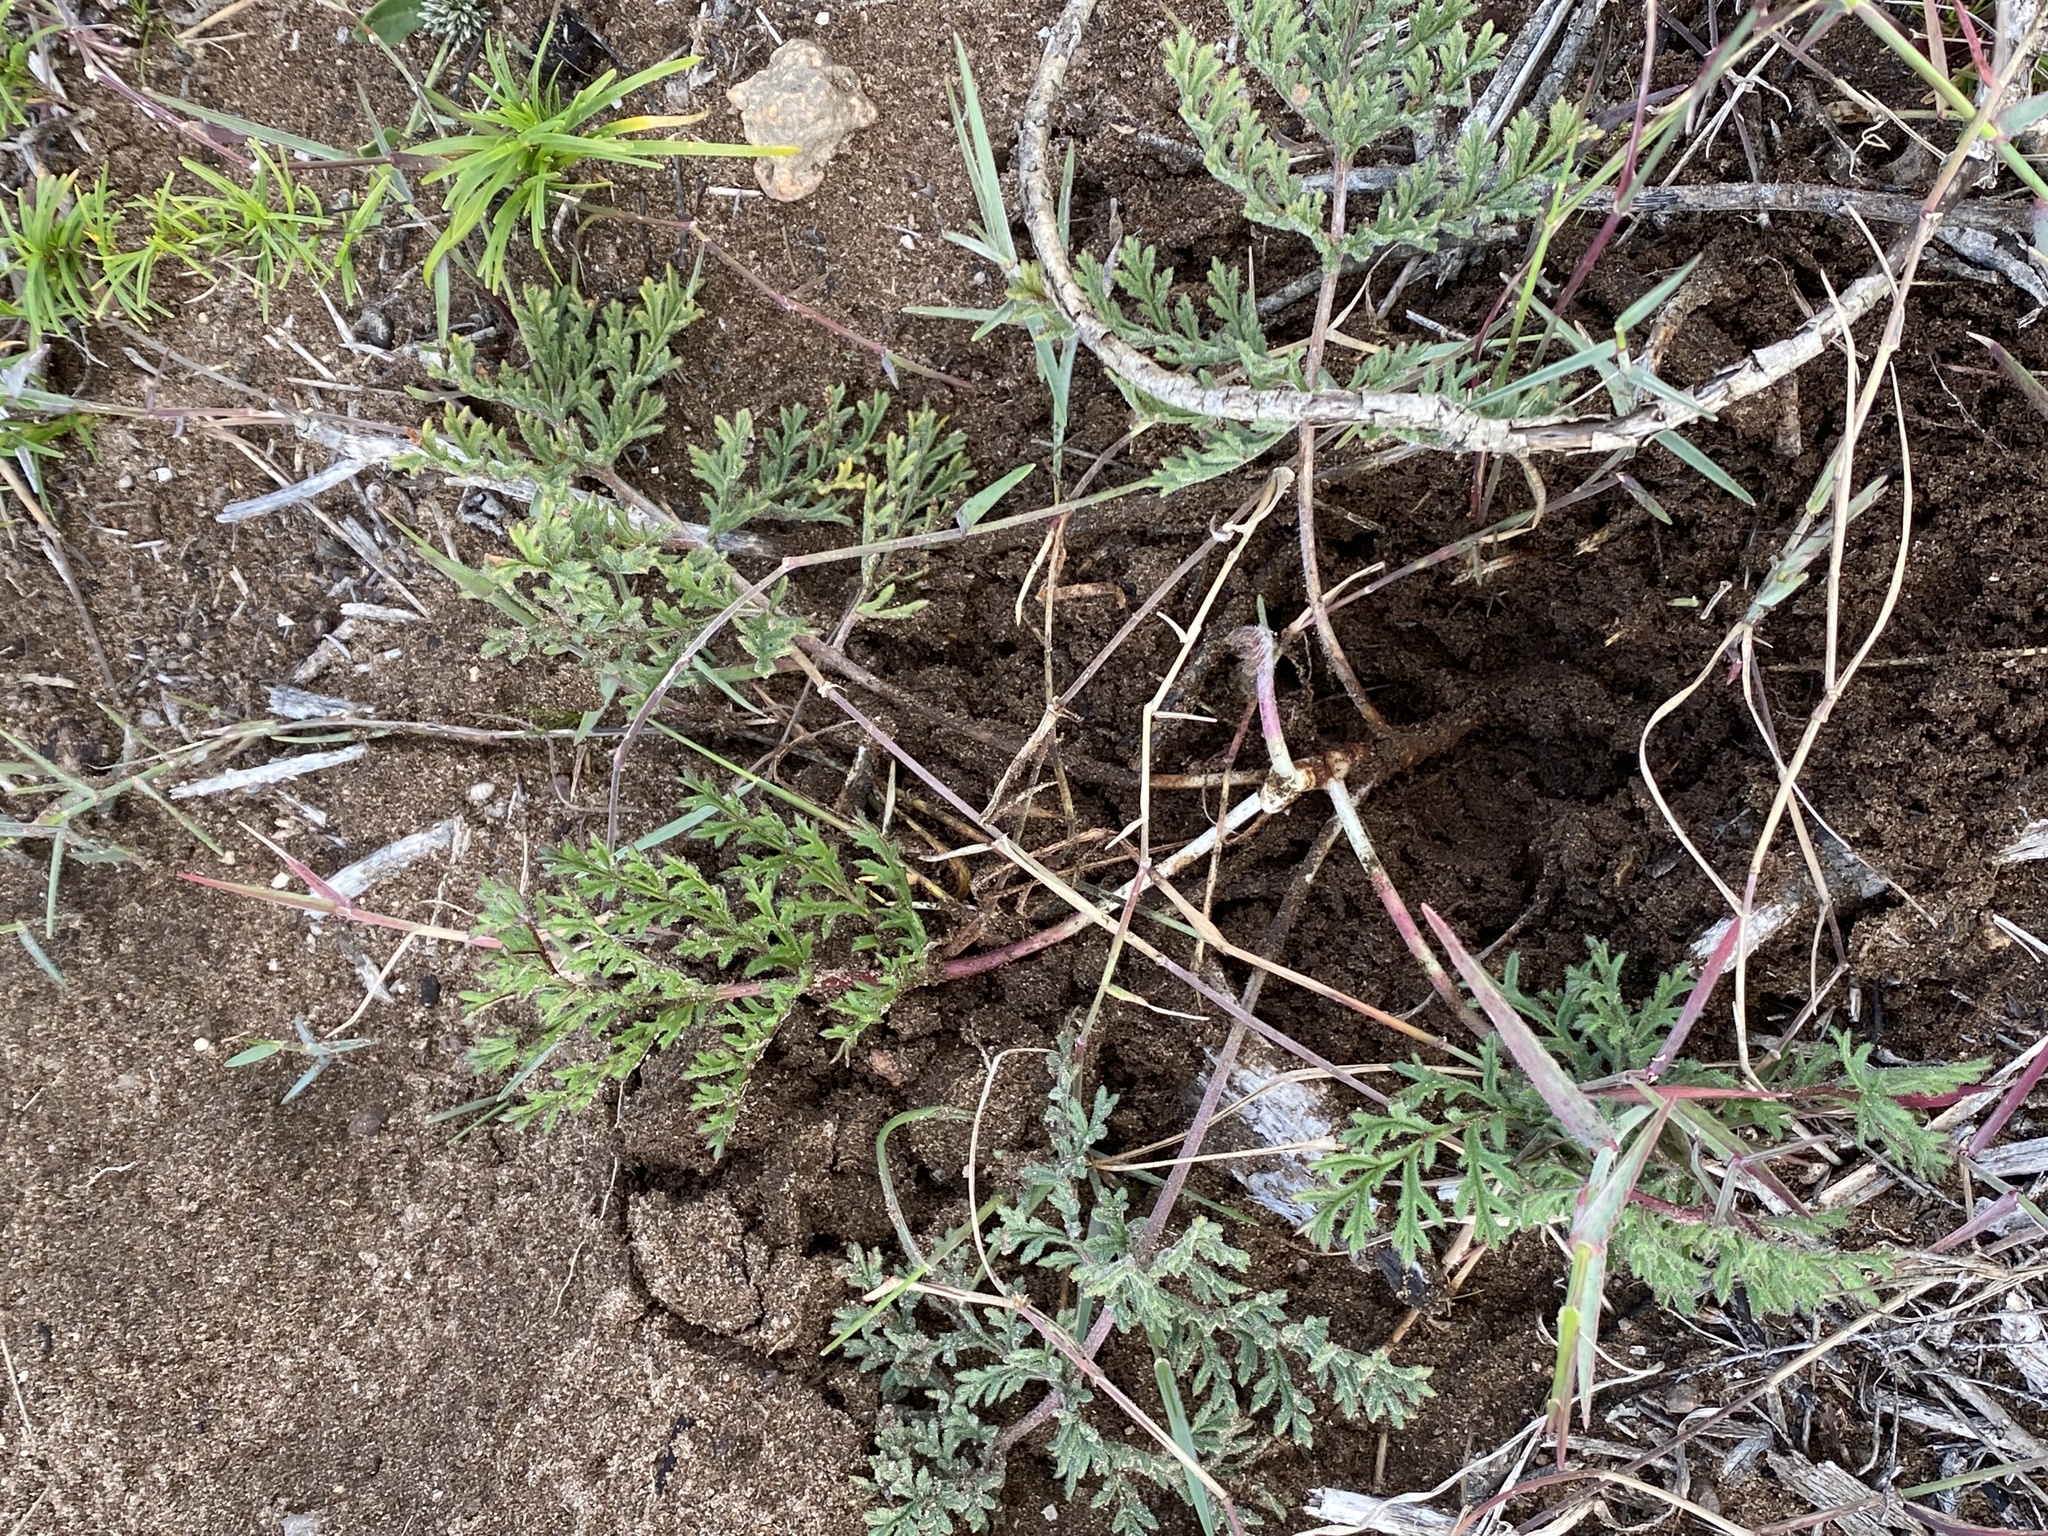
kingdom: Plantae
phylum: Tracheophyta
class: Magnoliopsida
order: Geraniales
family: Geraniaceae
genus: Pelargonium
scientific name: Pelargonium triste
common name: Night-scent pelargonium
